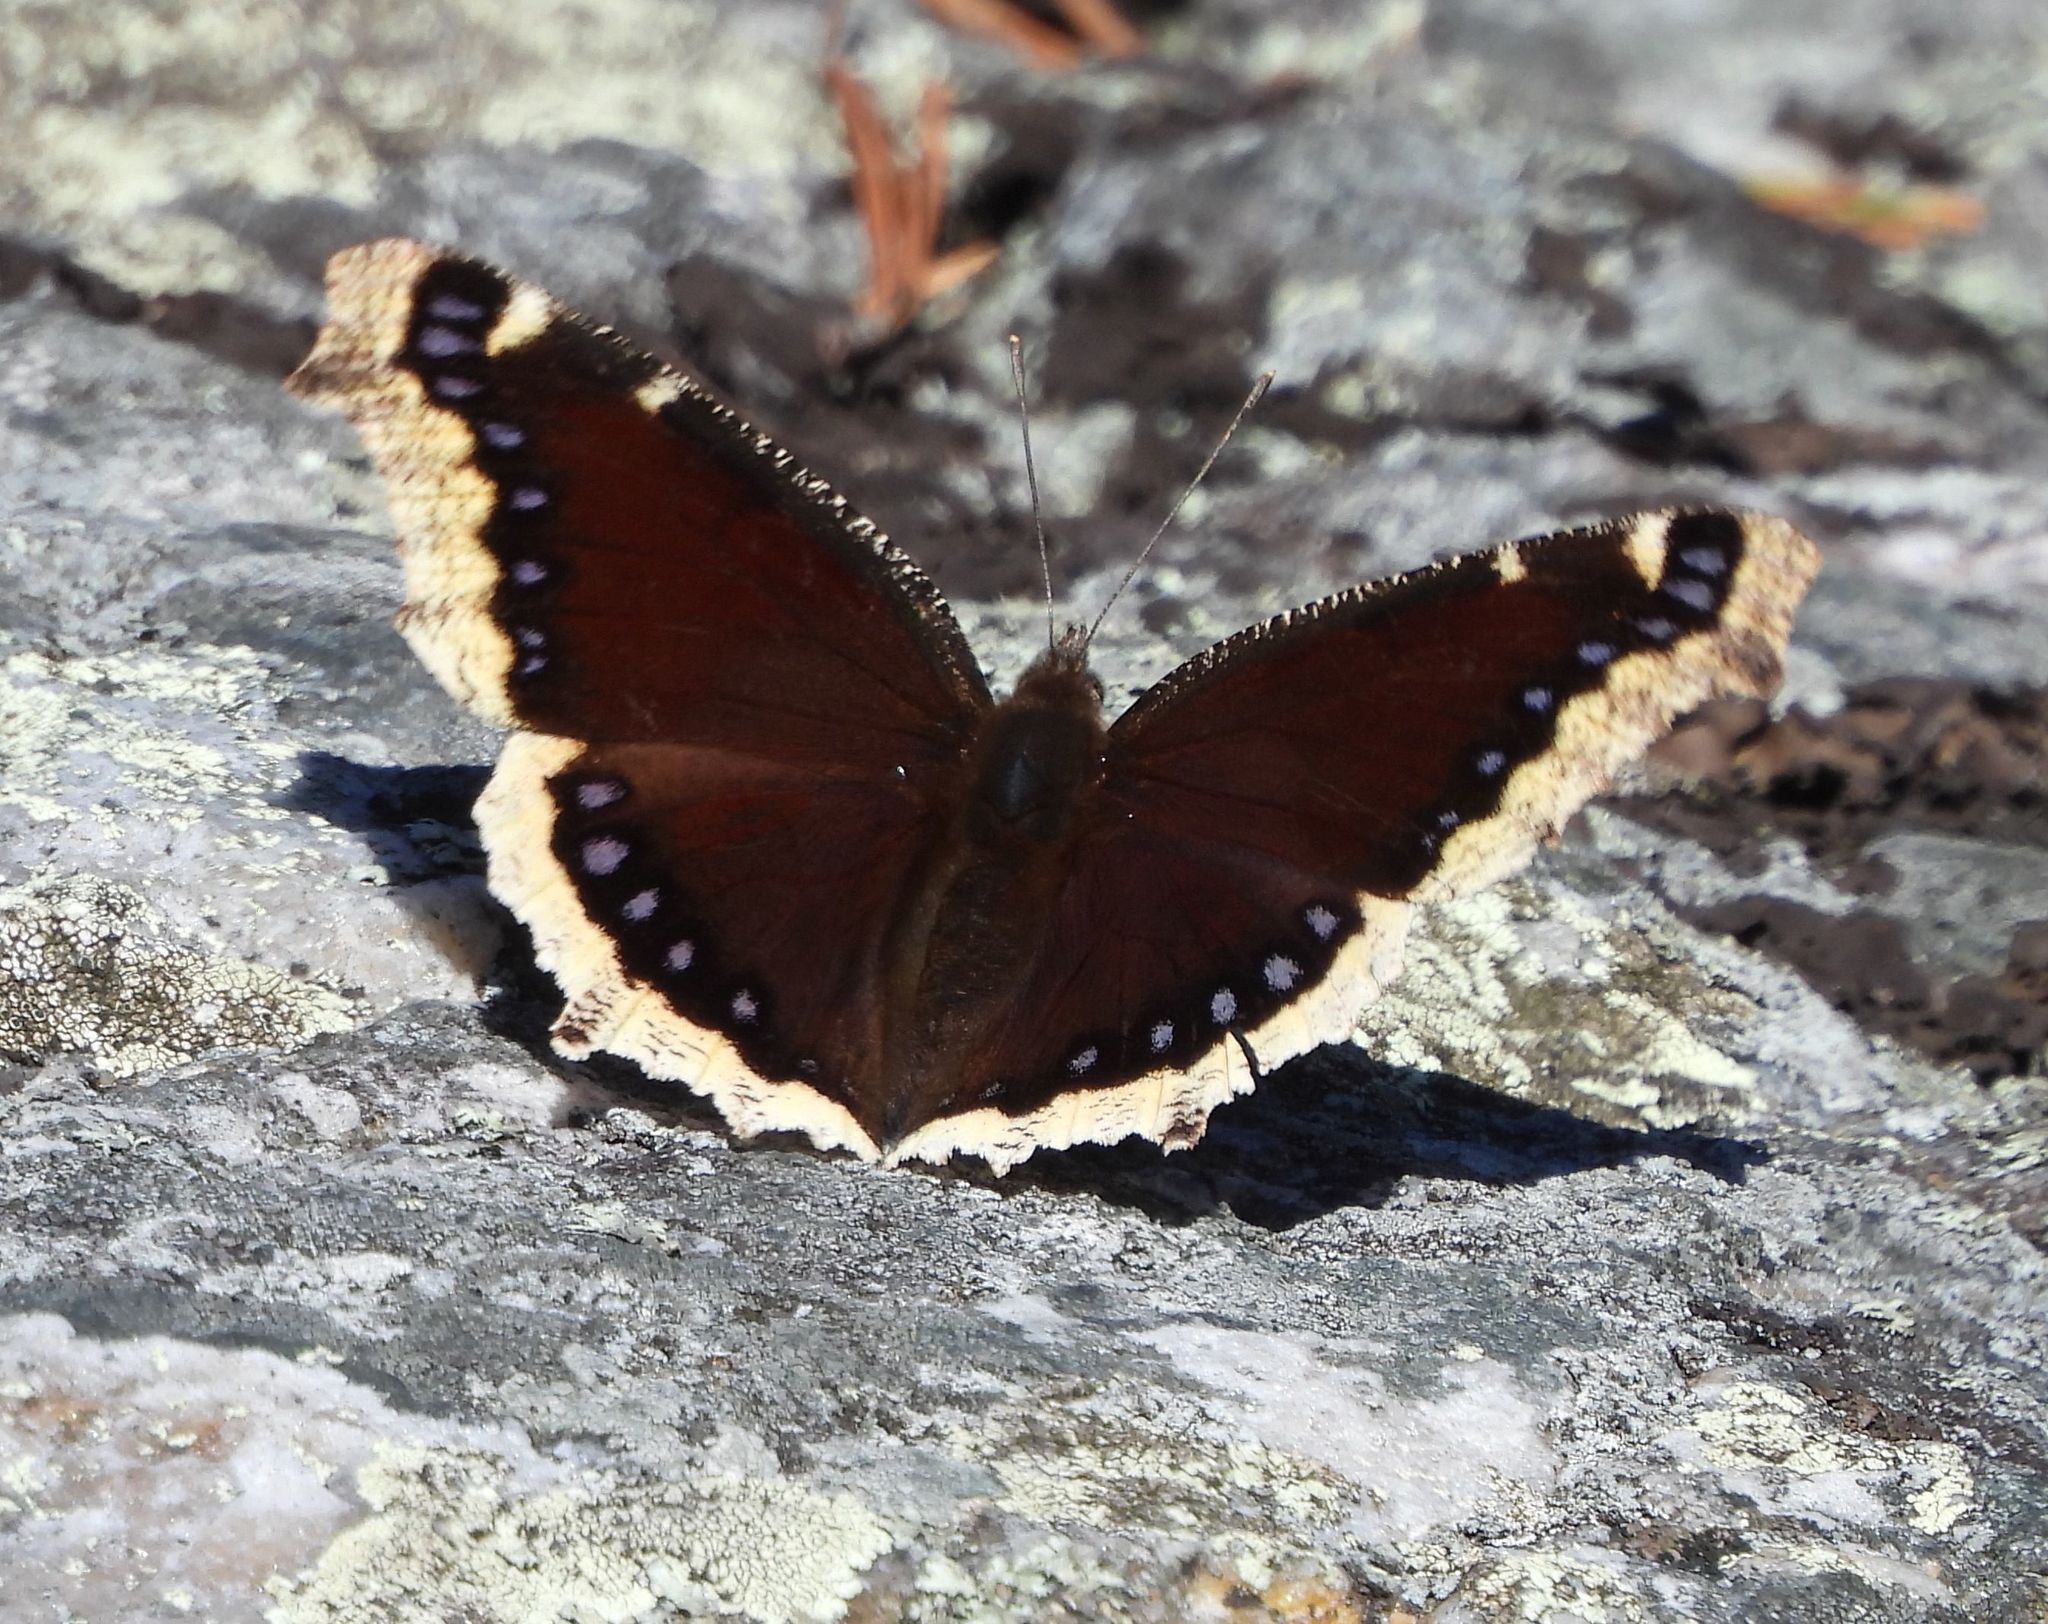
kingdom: Animalia
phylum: Arthropoda
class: Insecta
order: Lepidoptera
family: Nymphalidae
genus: Nymphalis
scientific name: Nymphalis antiopa
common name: Camberwell beauty
